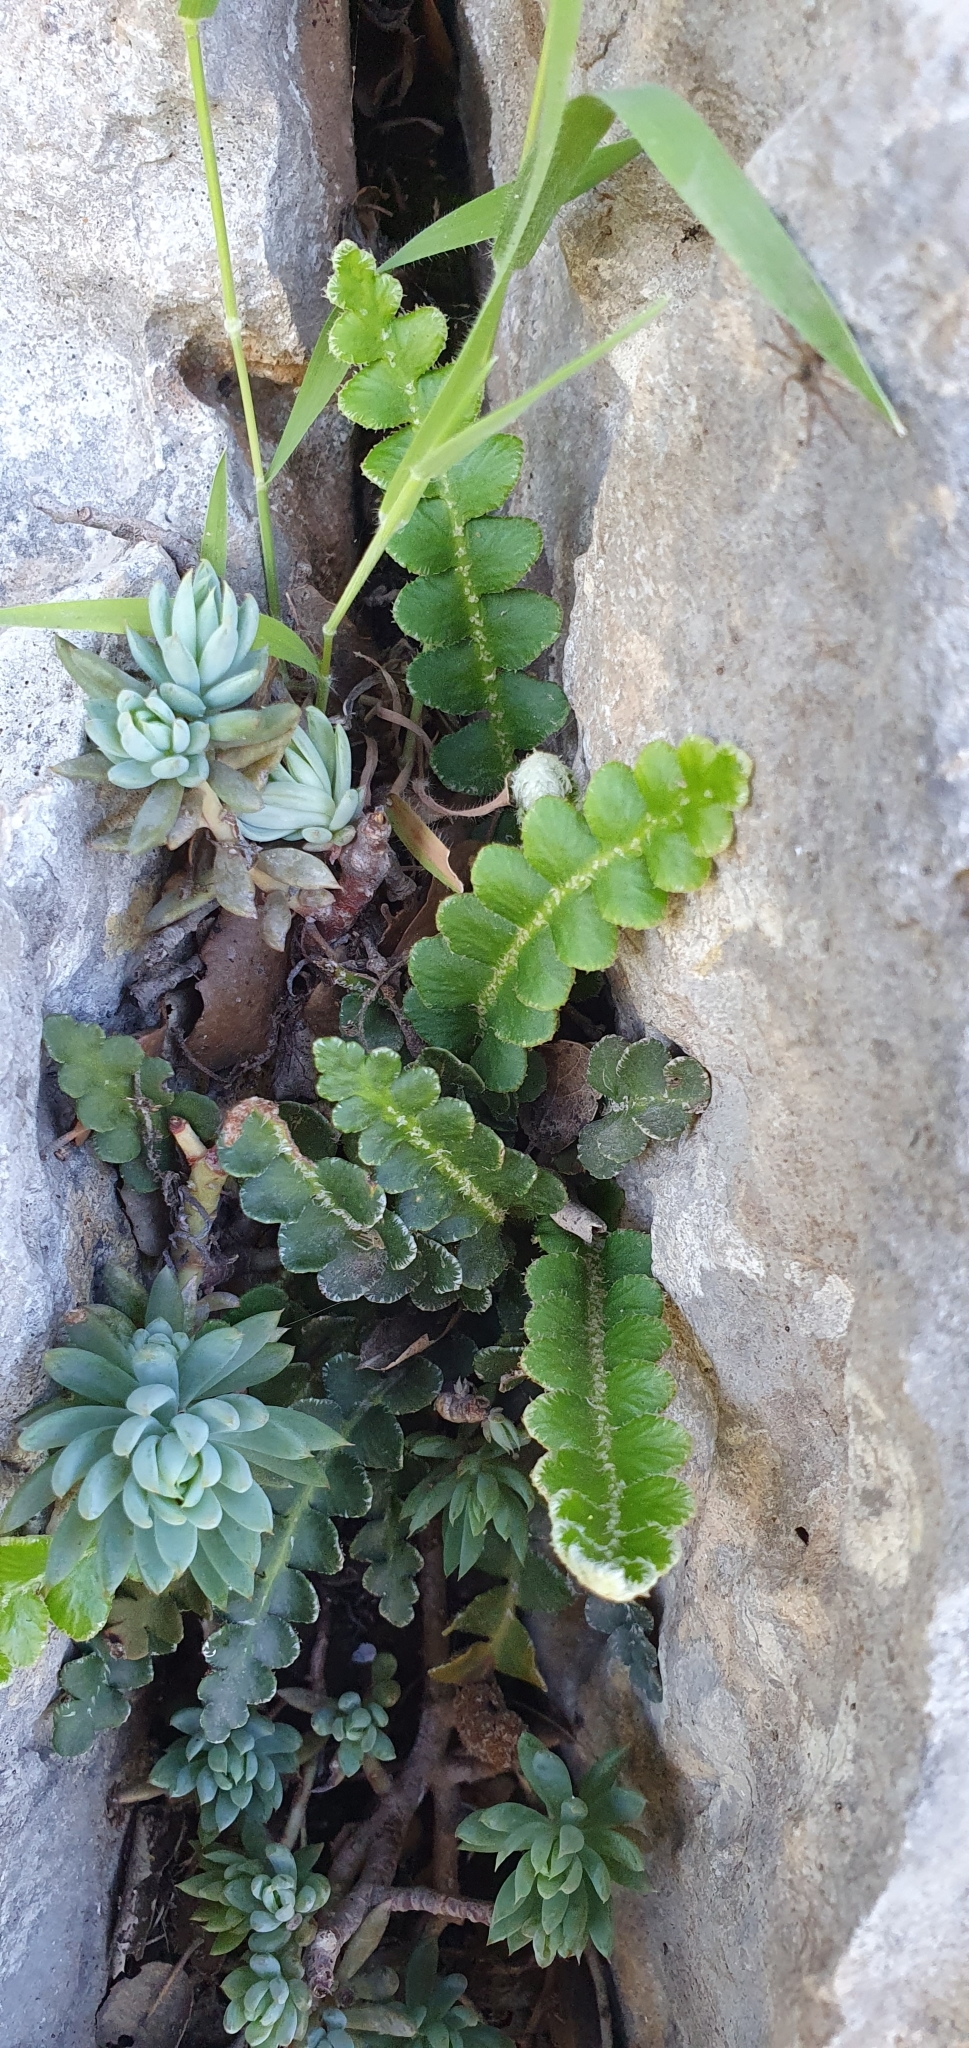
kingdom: Plantae
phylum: Tracheophyta
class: Polypodiopsida
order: Polypodiales
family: Aspleniaceae
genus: Asplenium
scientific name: Asplenium ceterach
